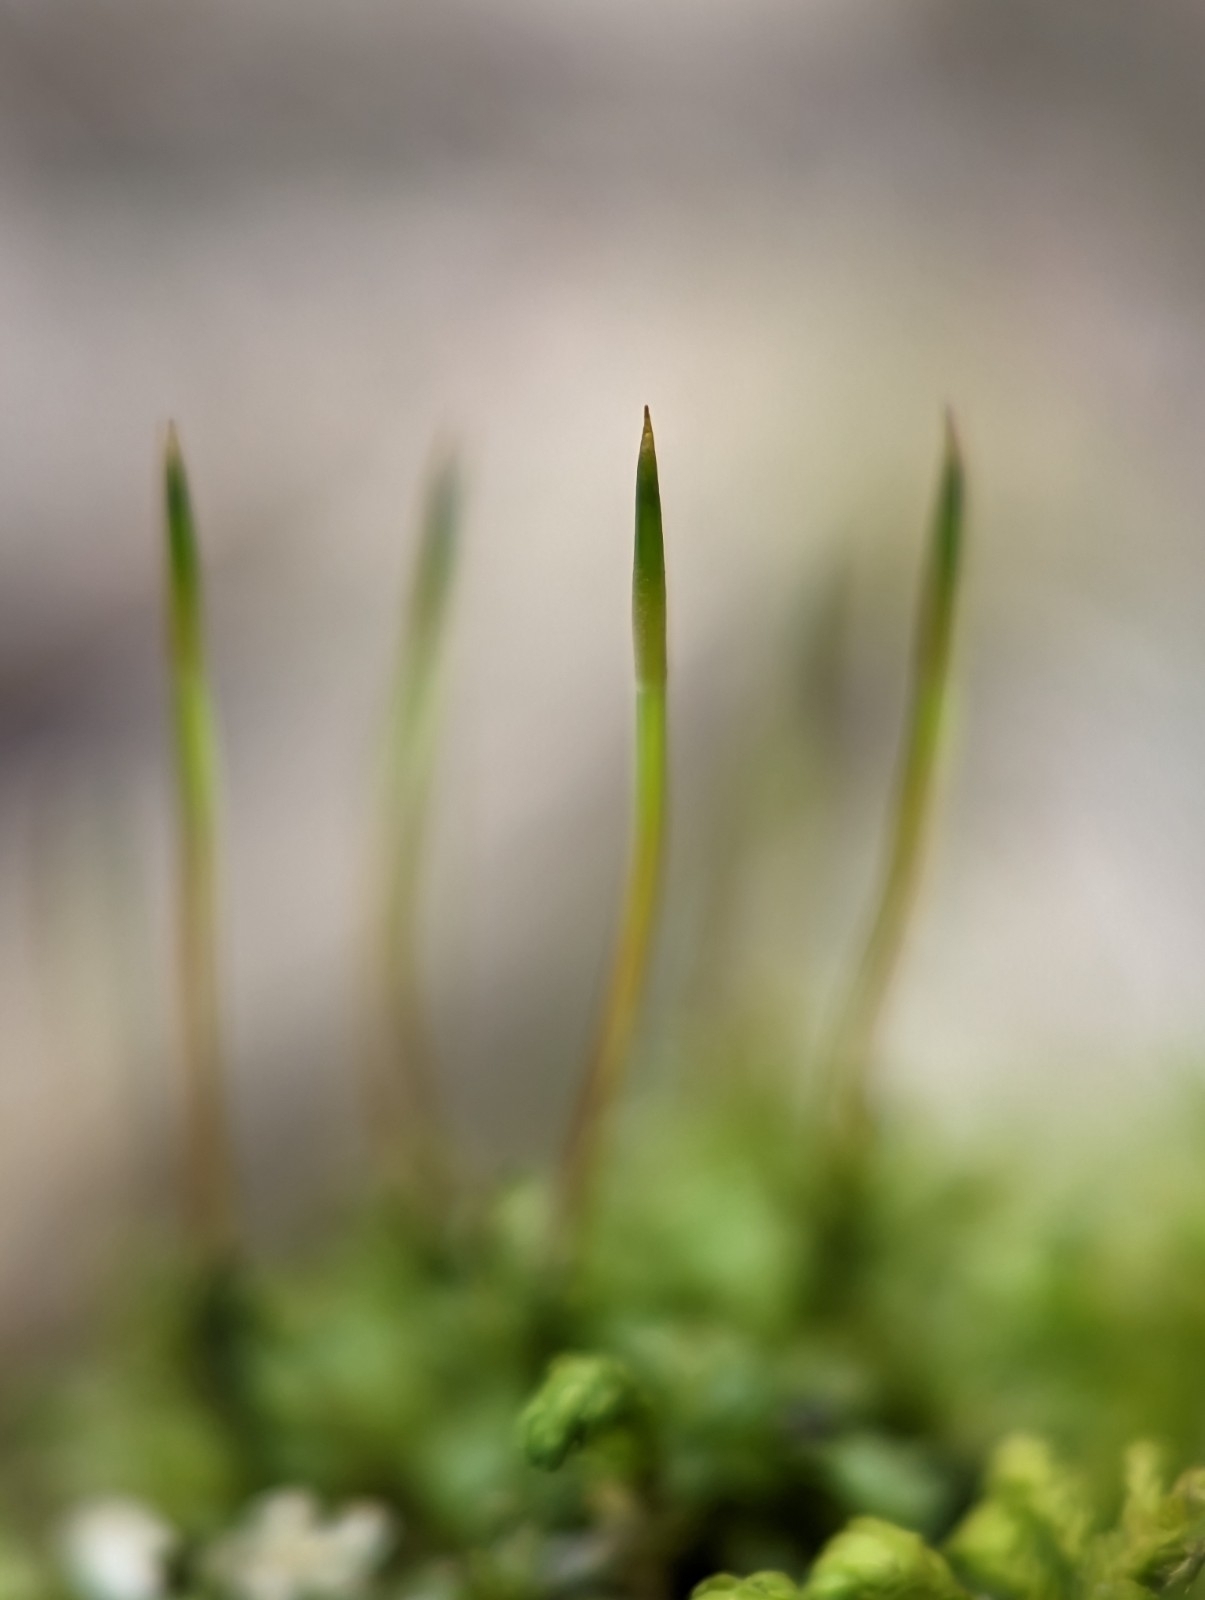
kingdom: Plantae
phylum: Bryophyta
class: Bryopsida
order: Bryales
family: Mniaceae
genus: Plagiomnium
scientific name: Plagiomnium cuspidatum
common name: Woodsy leafy moss
